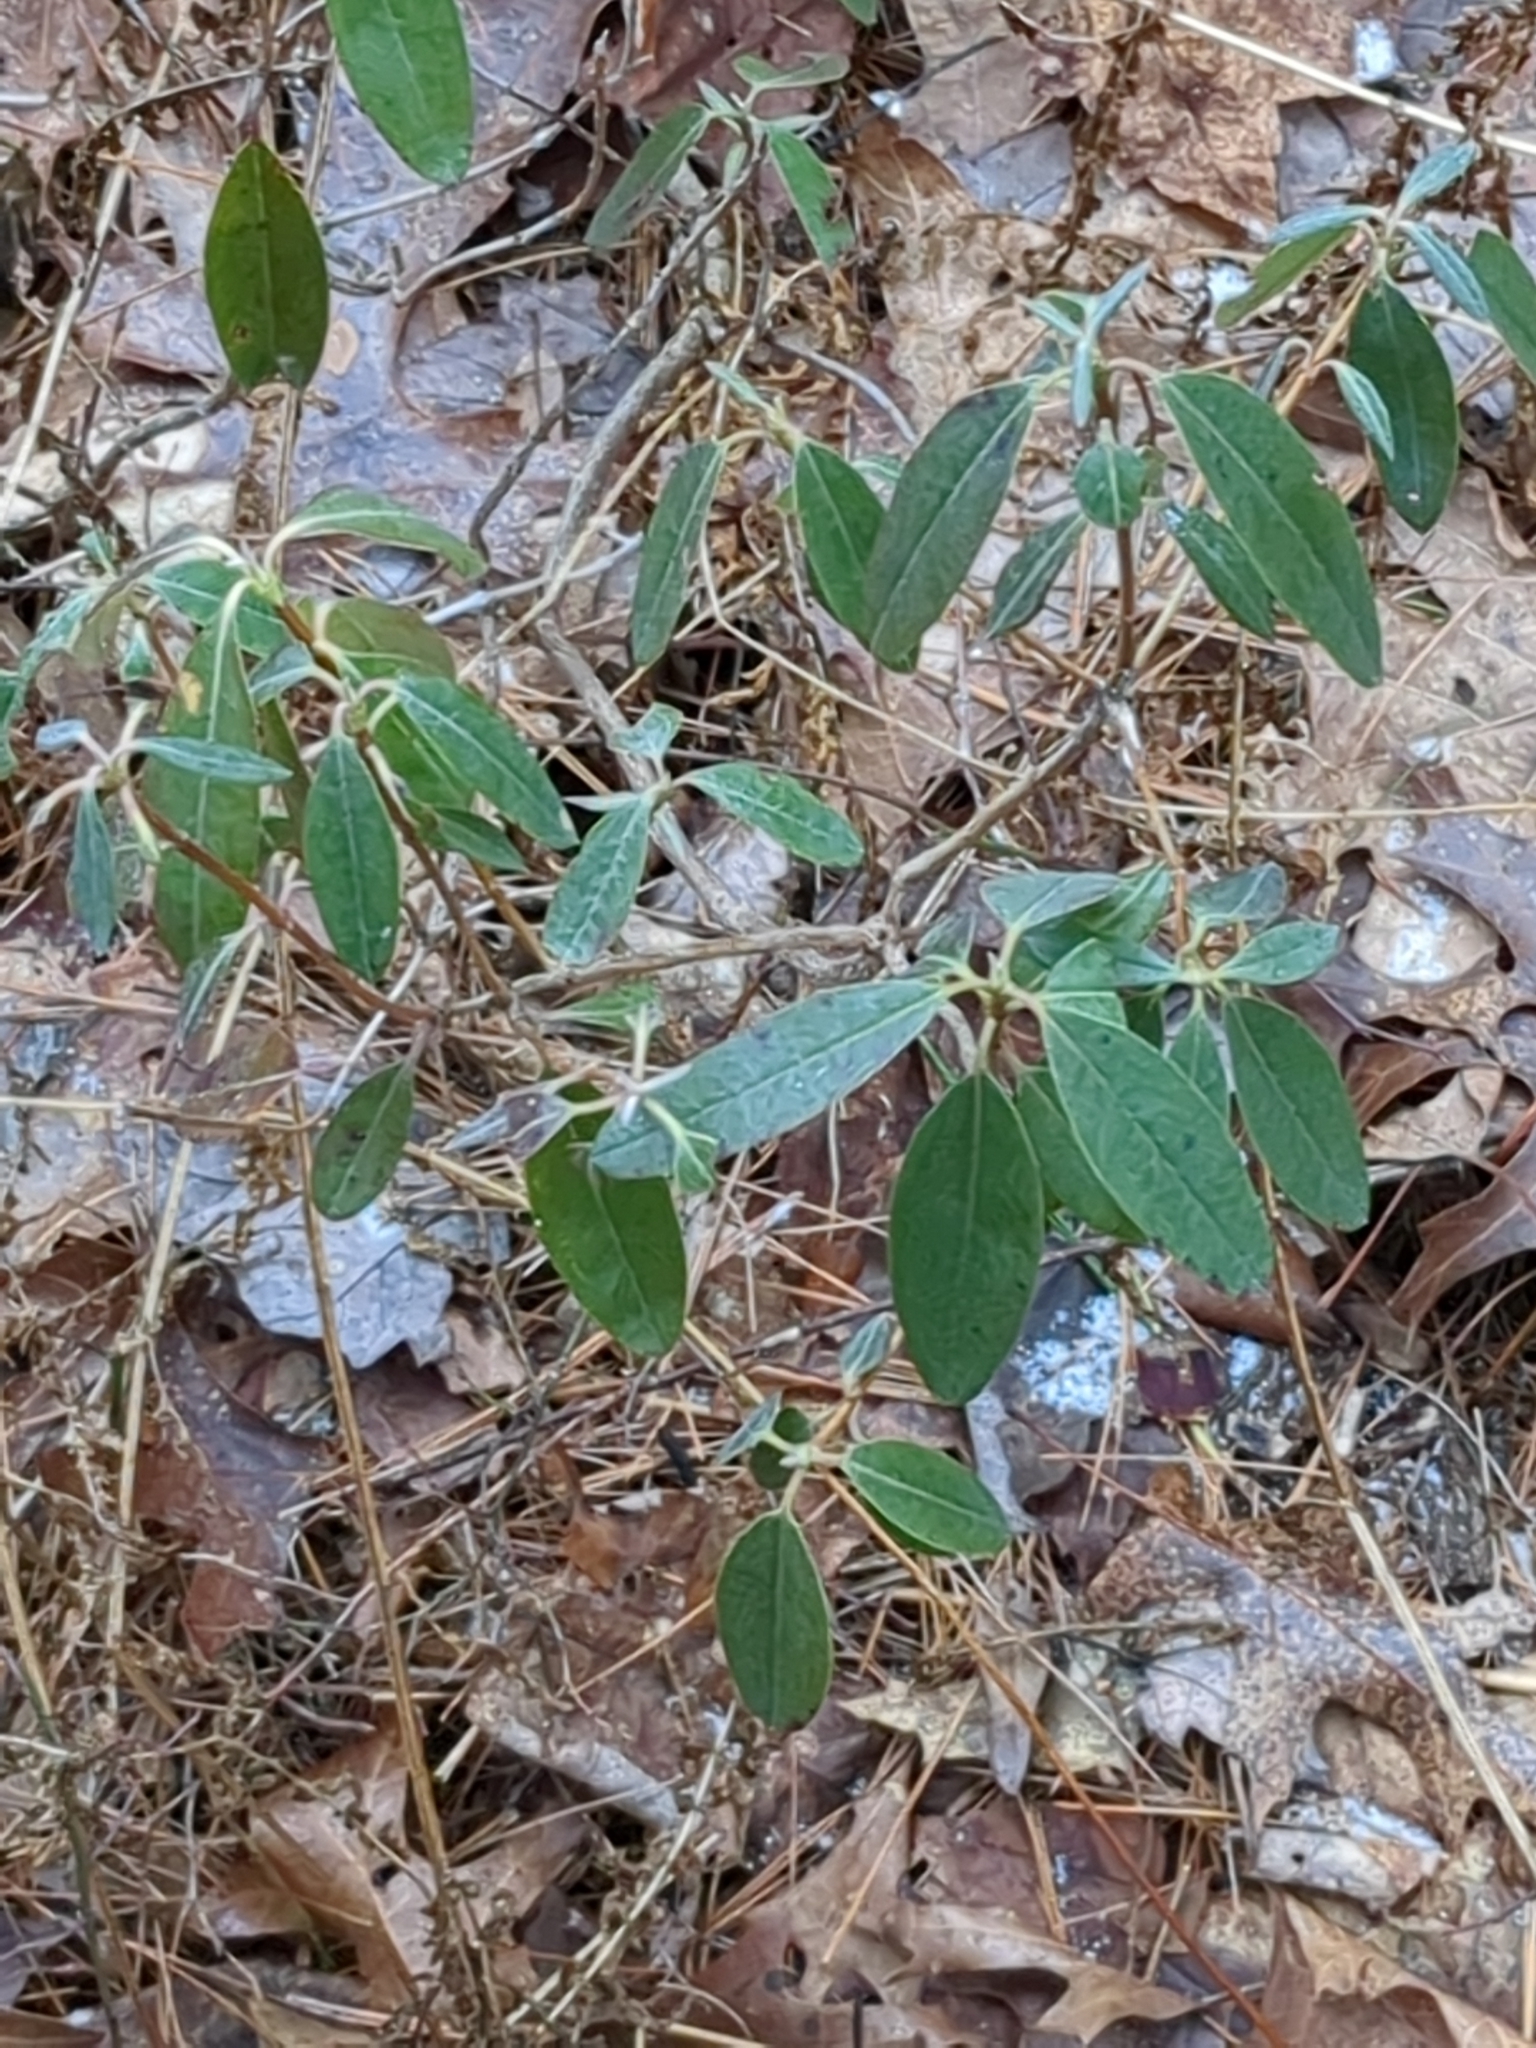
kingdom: Plantae
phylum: Tracheophyta
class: Magnoliopsida
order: Ericales
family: Ericaceae
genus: Kalmia
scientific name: Kalmia angustifolia
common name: Sheep-laurel
